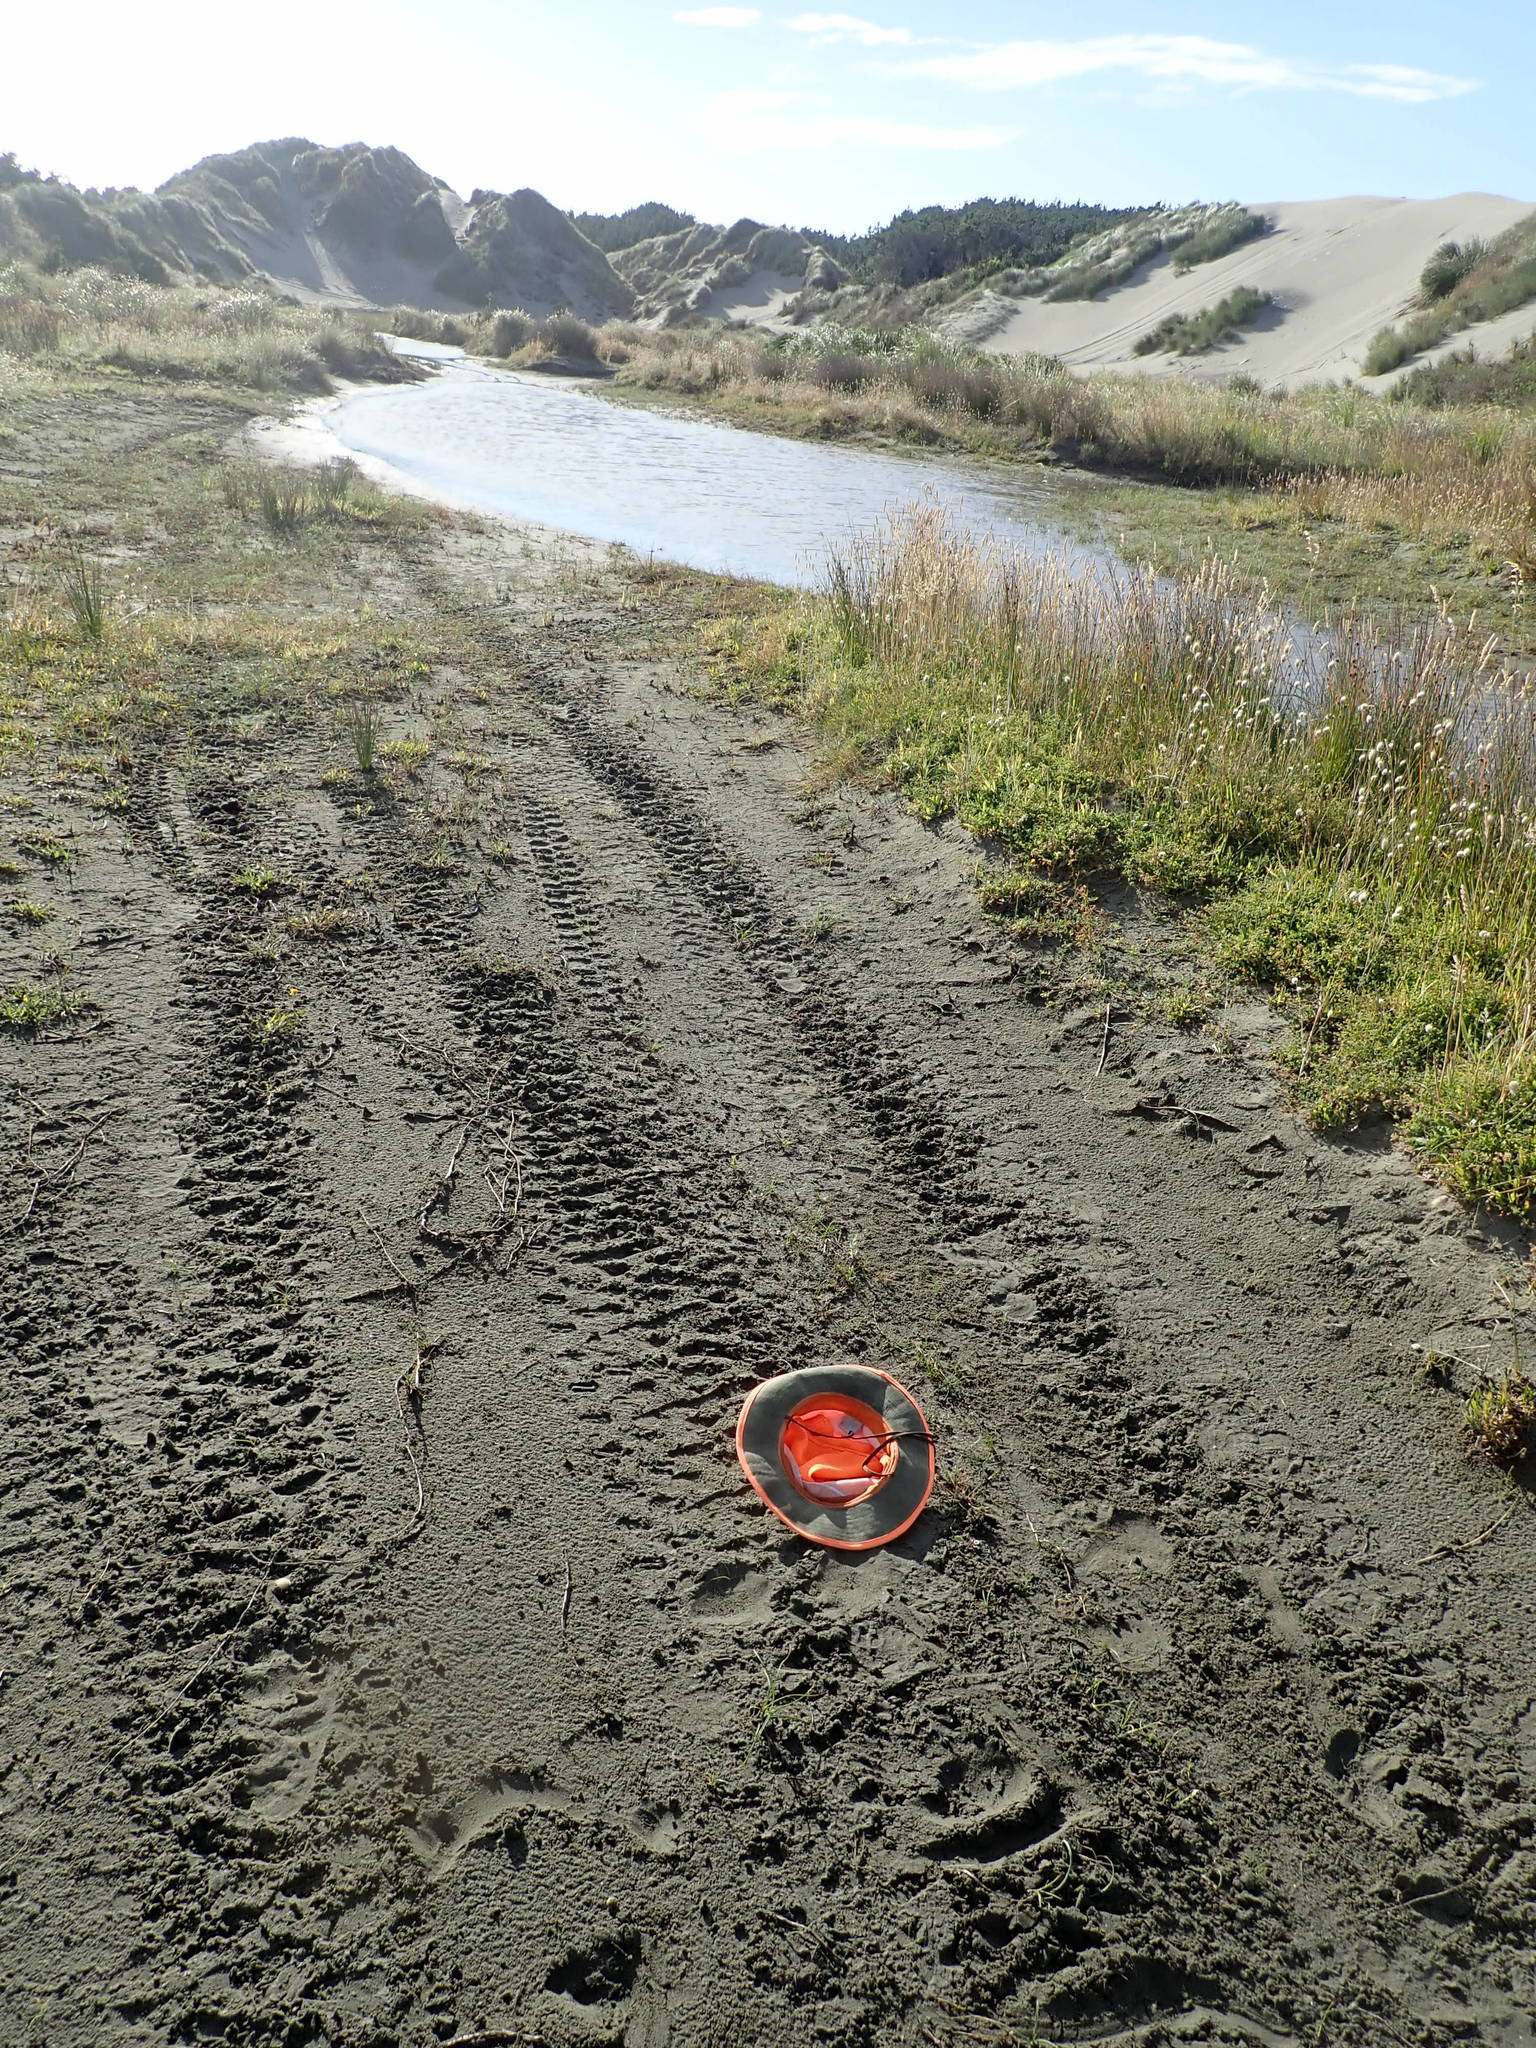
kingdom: Plantae
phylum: Tracheophyta
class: Liliopsida
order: Poales
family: Cyperaceae
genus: Isolepis
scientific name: Isolepis cernua
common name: Slender club-rush
